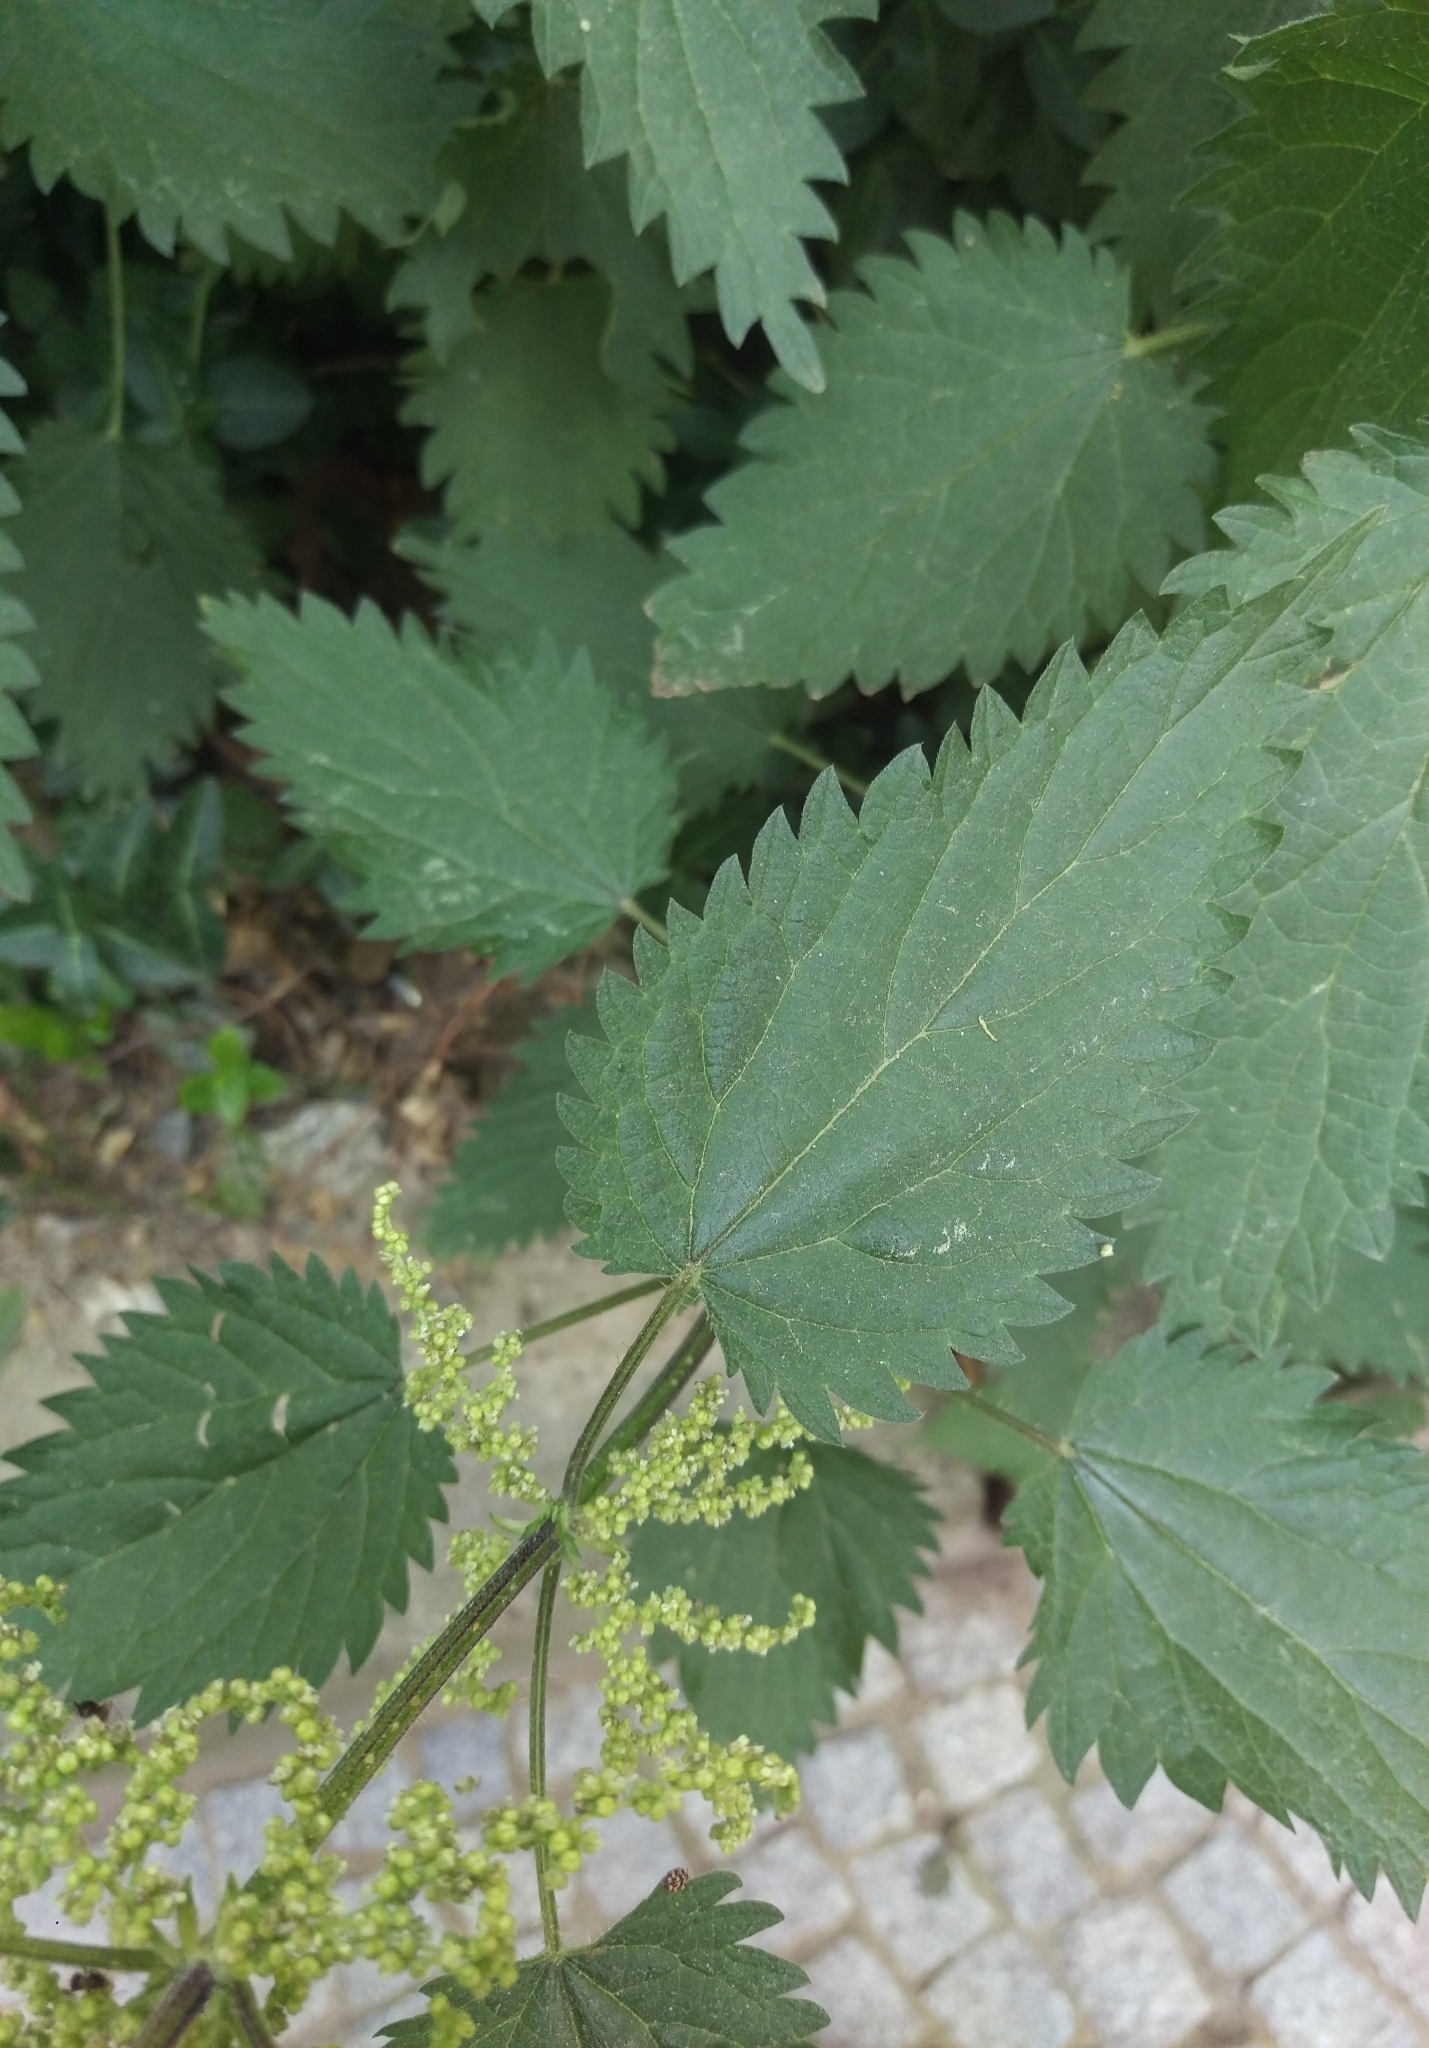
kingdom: Plantae
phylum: Tracheophyta
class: Magnoliopsida
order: Rosales
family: Urticaceae
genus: Urtica
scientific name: Urtica dioica
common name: Common nettle
